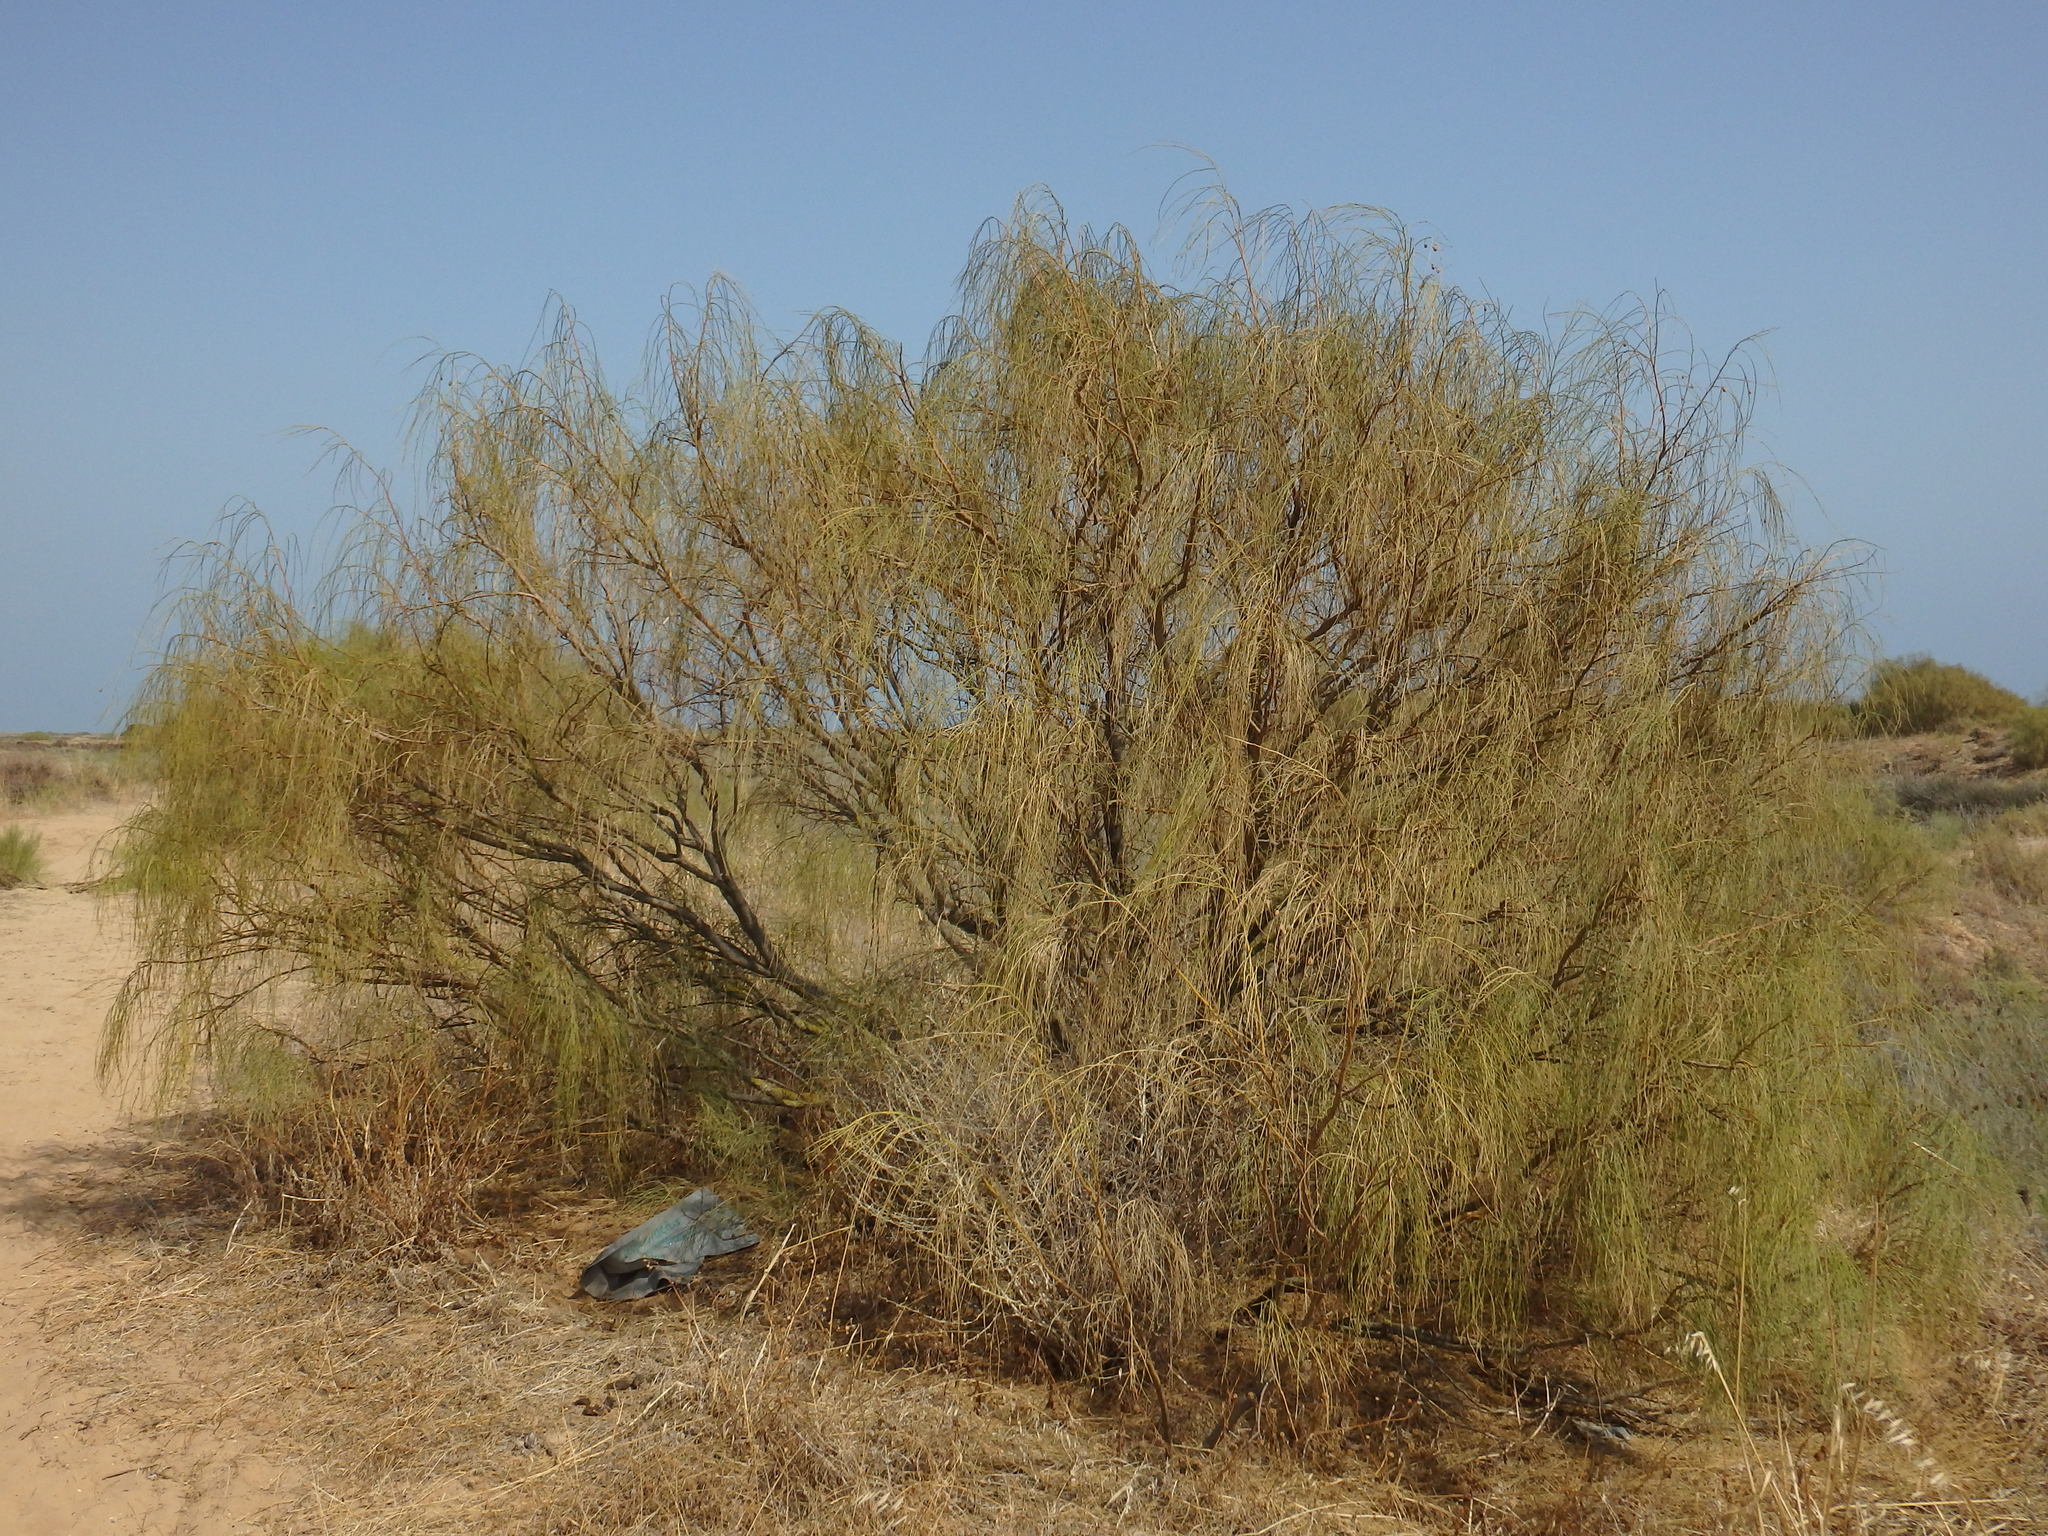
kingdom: Plantae
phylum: Tracheophyta
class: Magnoliopsida
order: Fabales
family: Fabaceae
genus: Retama
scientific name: Retama monosperma
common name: Bridal broom
